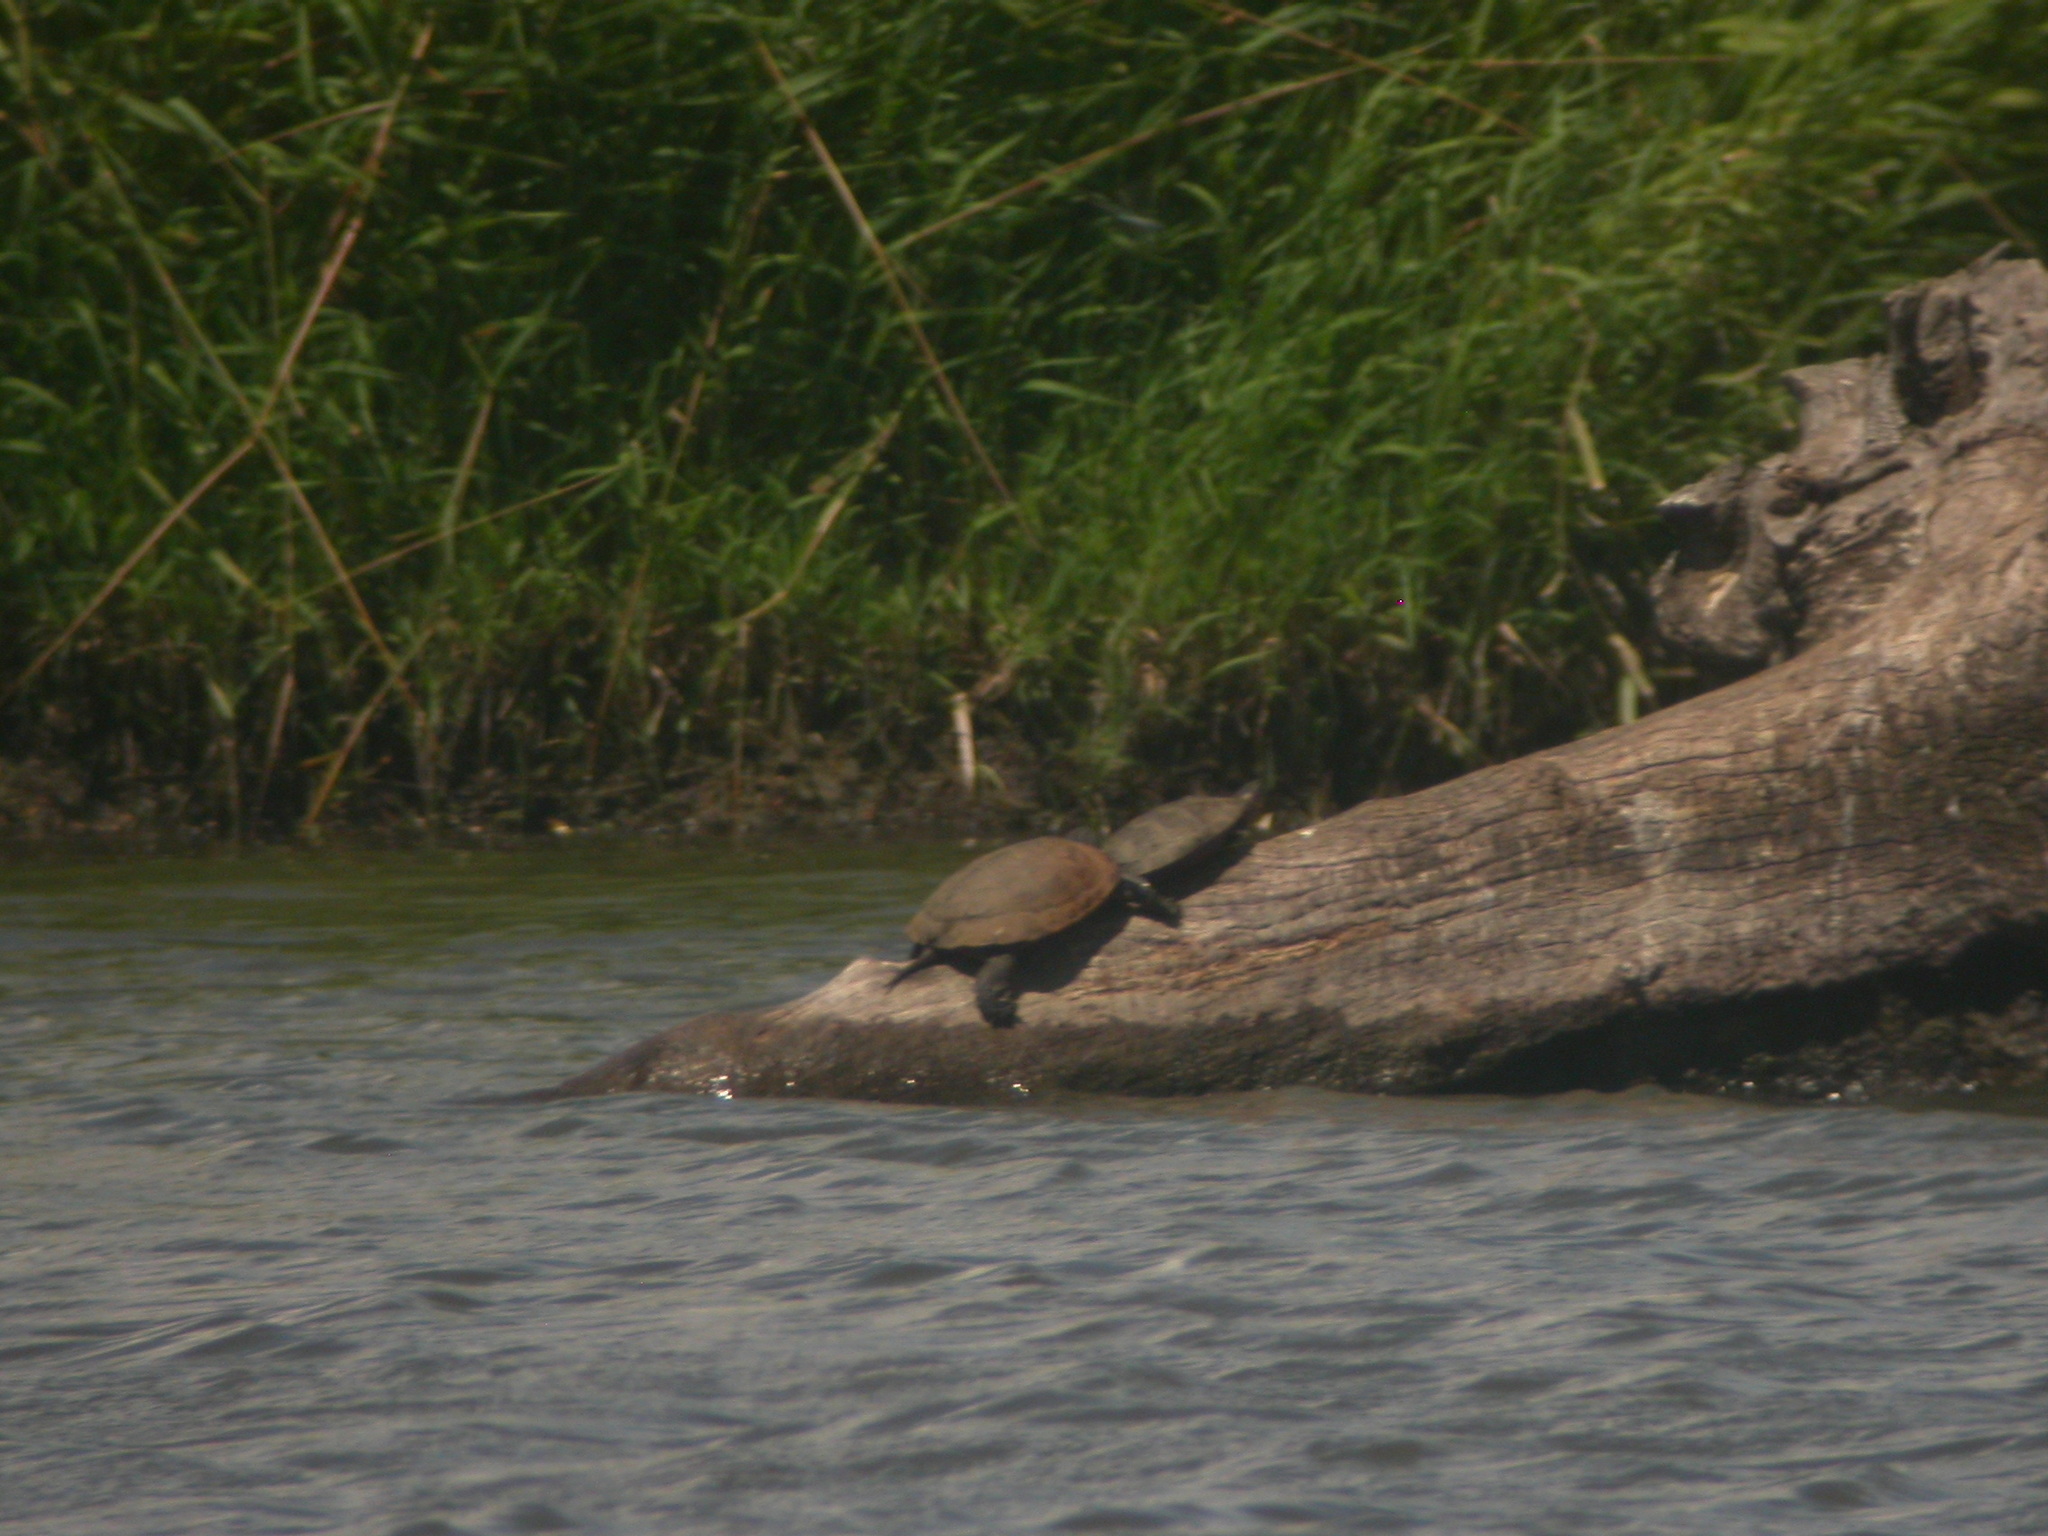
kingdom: Animalia
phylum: Chordata
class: Testudines
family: Emydidae
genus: Actinemys
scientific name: Actinemys marmorata
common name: Western pond turtle
